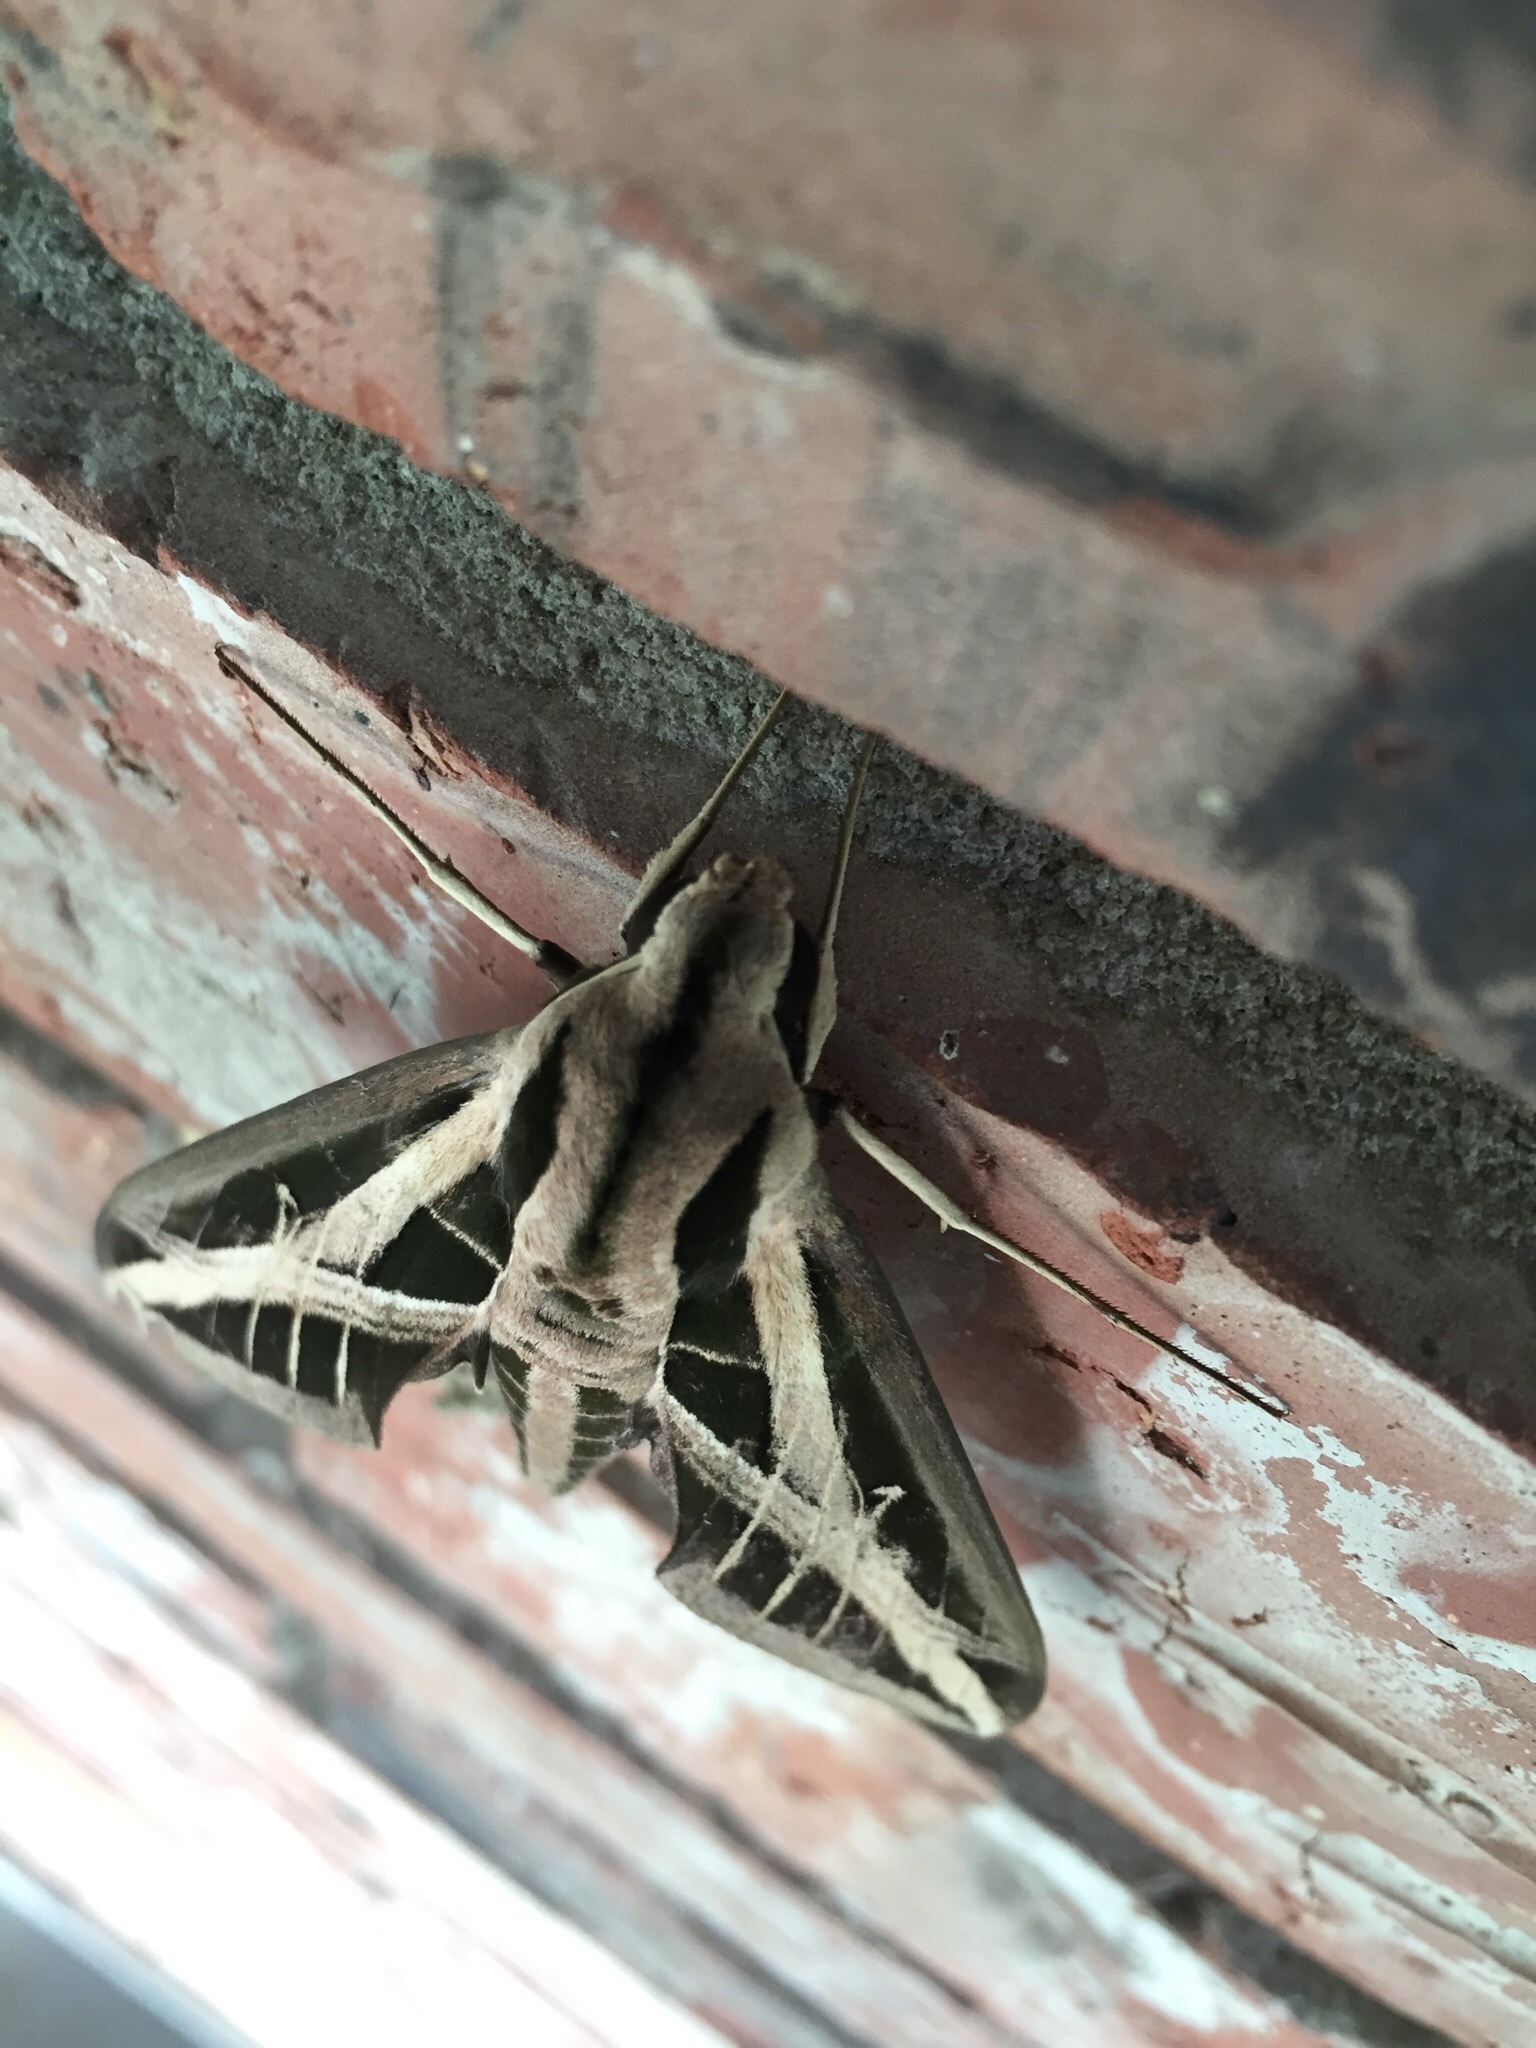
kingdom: Animalia
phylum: Arthropoda
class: Insecta
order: Lepidoptera
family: Sphingidae
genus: Eumorpha
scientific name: Eumorpha fasciatus
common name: Banded sphinx
